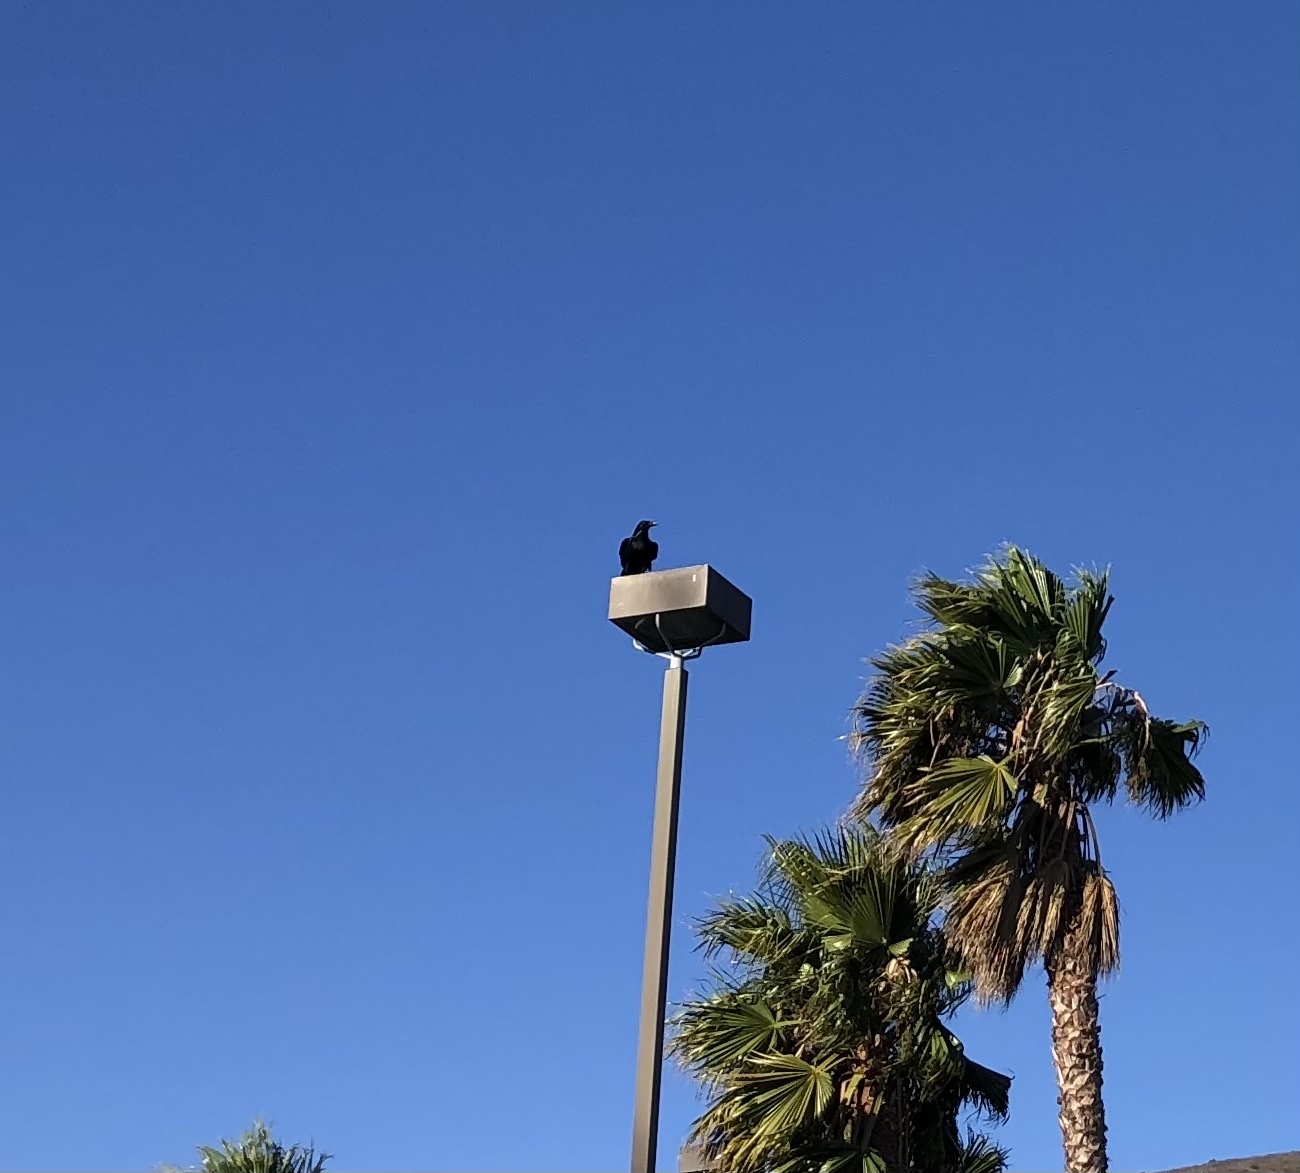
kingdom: Animalia
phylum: Chordata
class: Aves
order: Passeriformes
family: Corvidae
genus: Corvus
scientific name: Corvus corax
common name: Common raven
